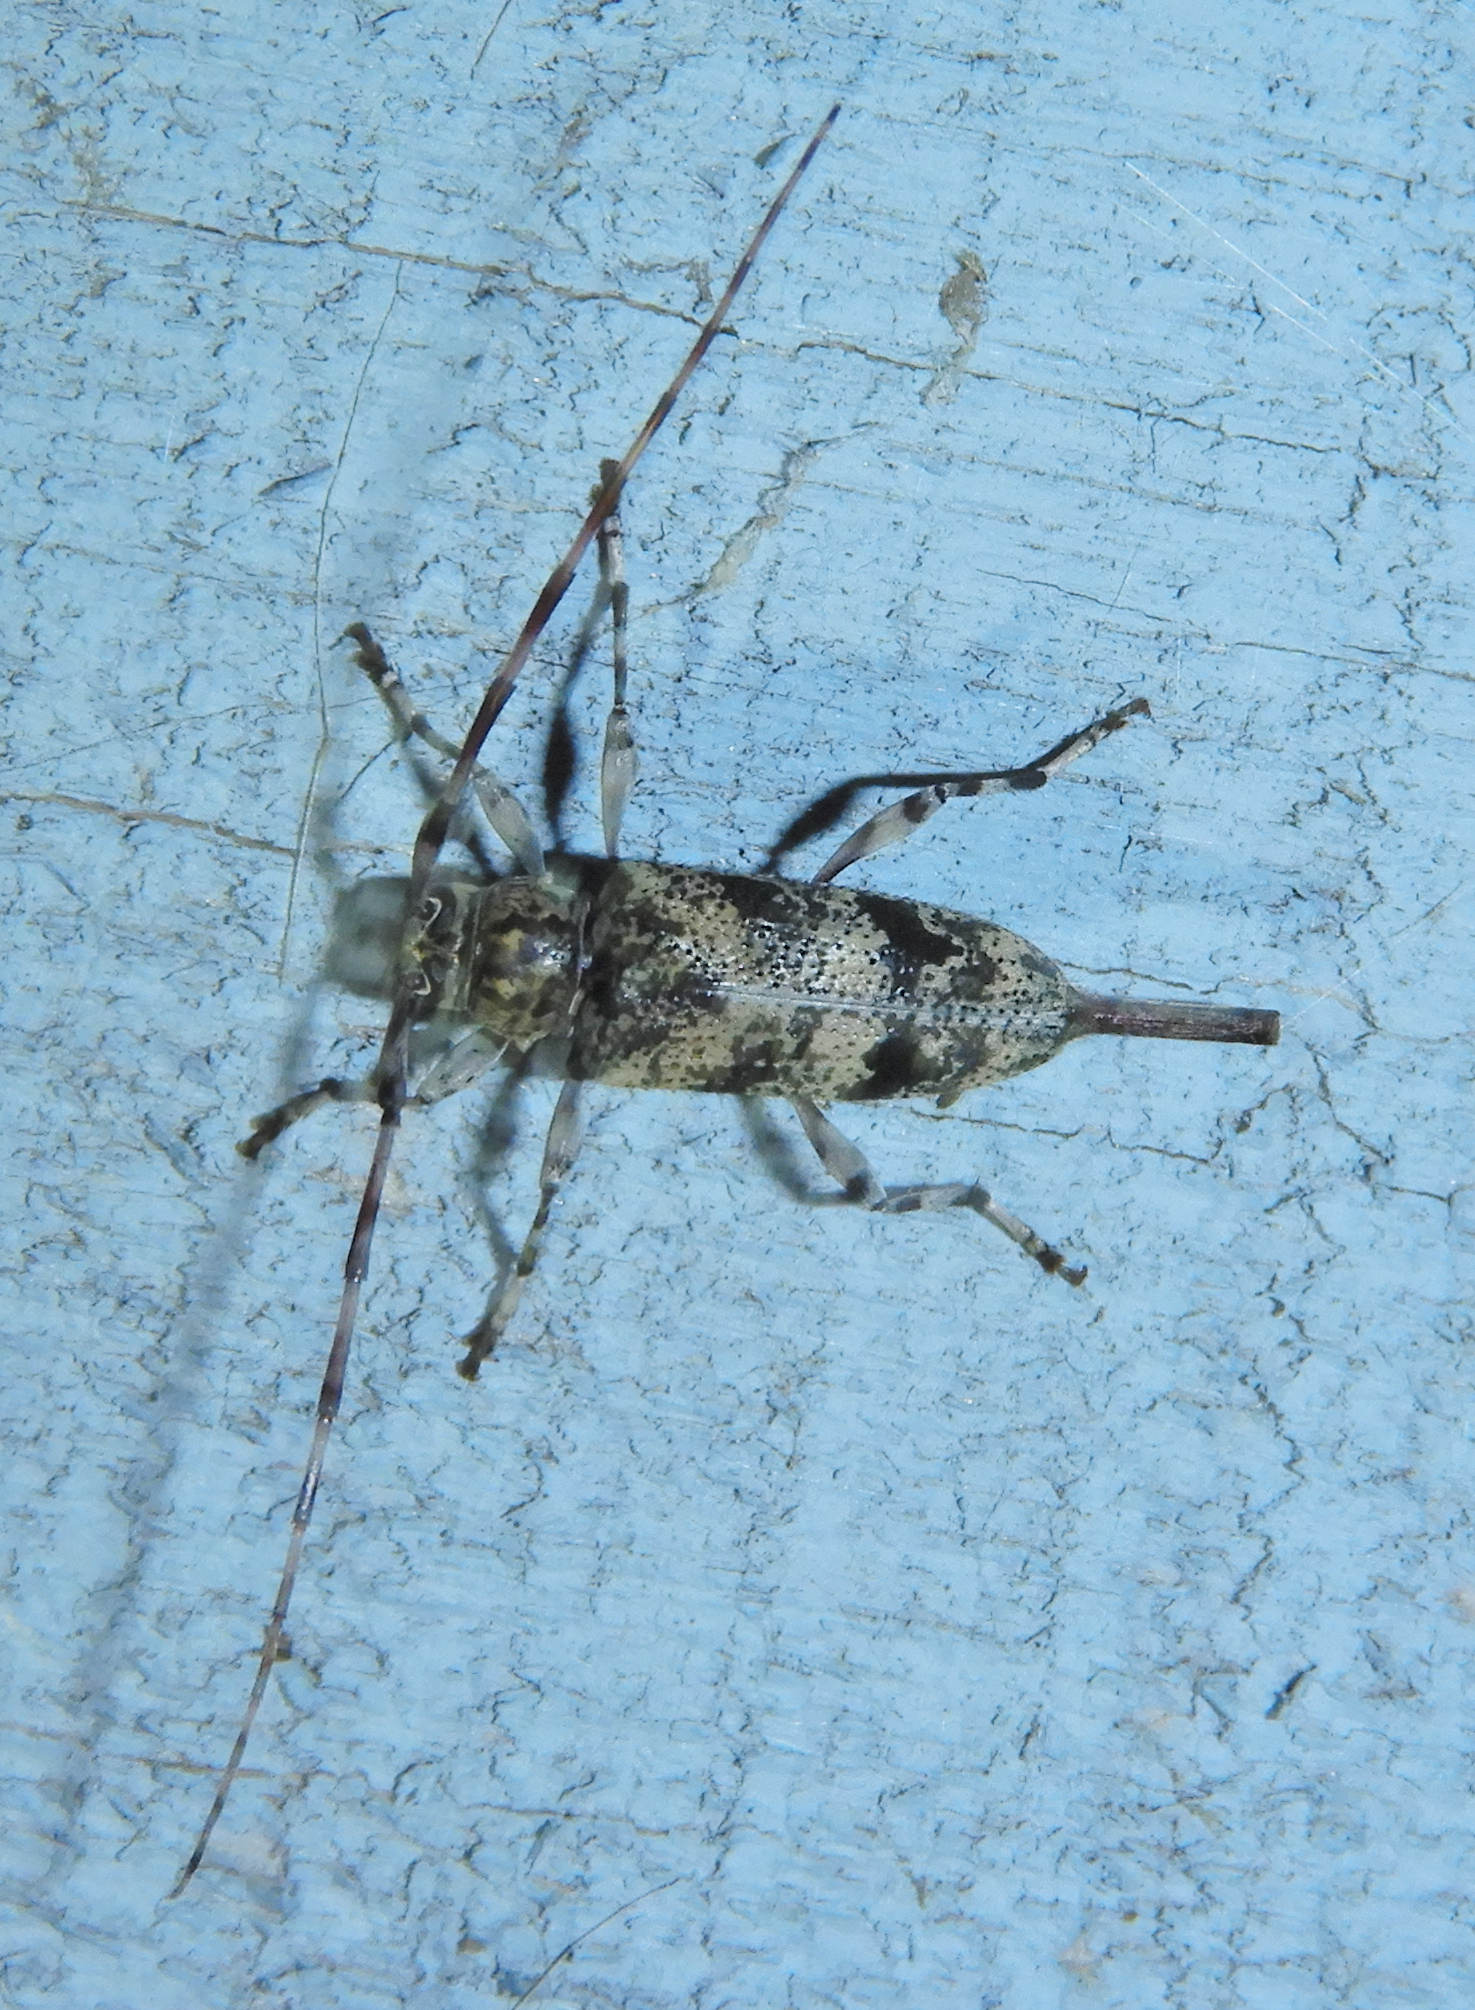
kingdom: Animalia
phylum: Arthropoda
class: Insecta
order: Coleoptera
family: Cerambycidae
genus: Graphisurus
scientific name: Graphisurus fasciatus
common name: Banded graphisurus
